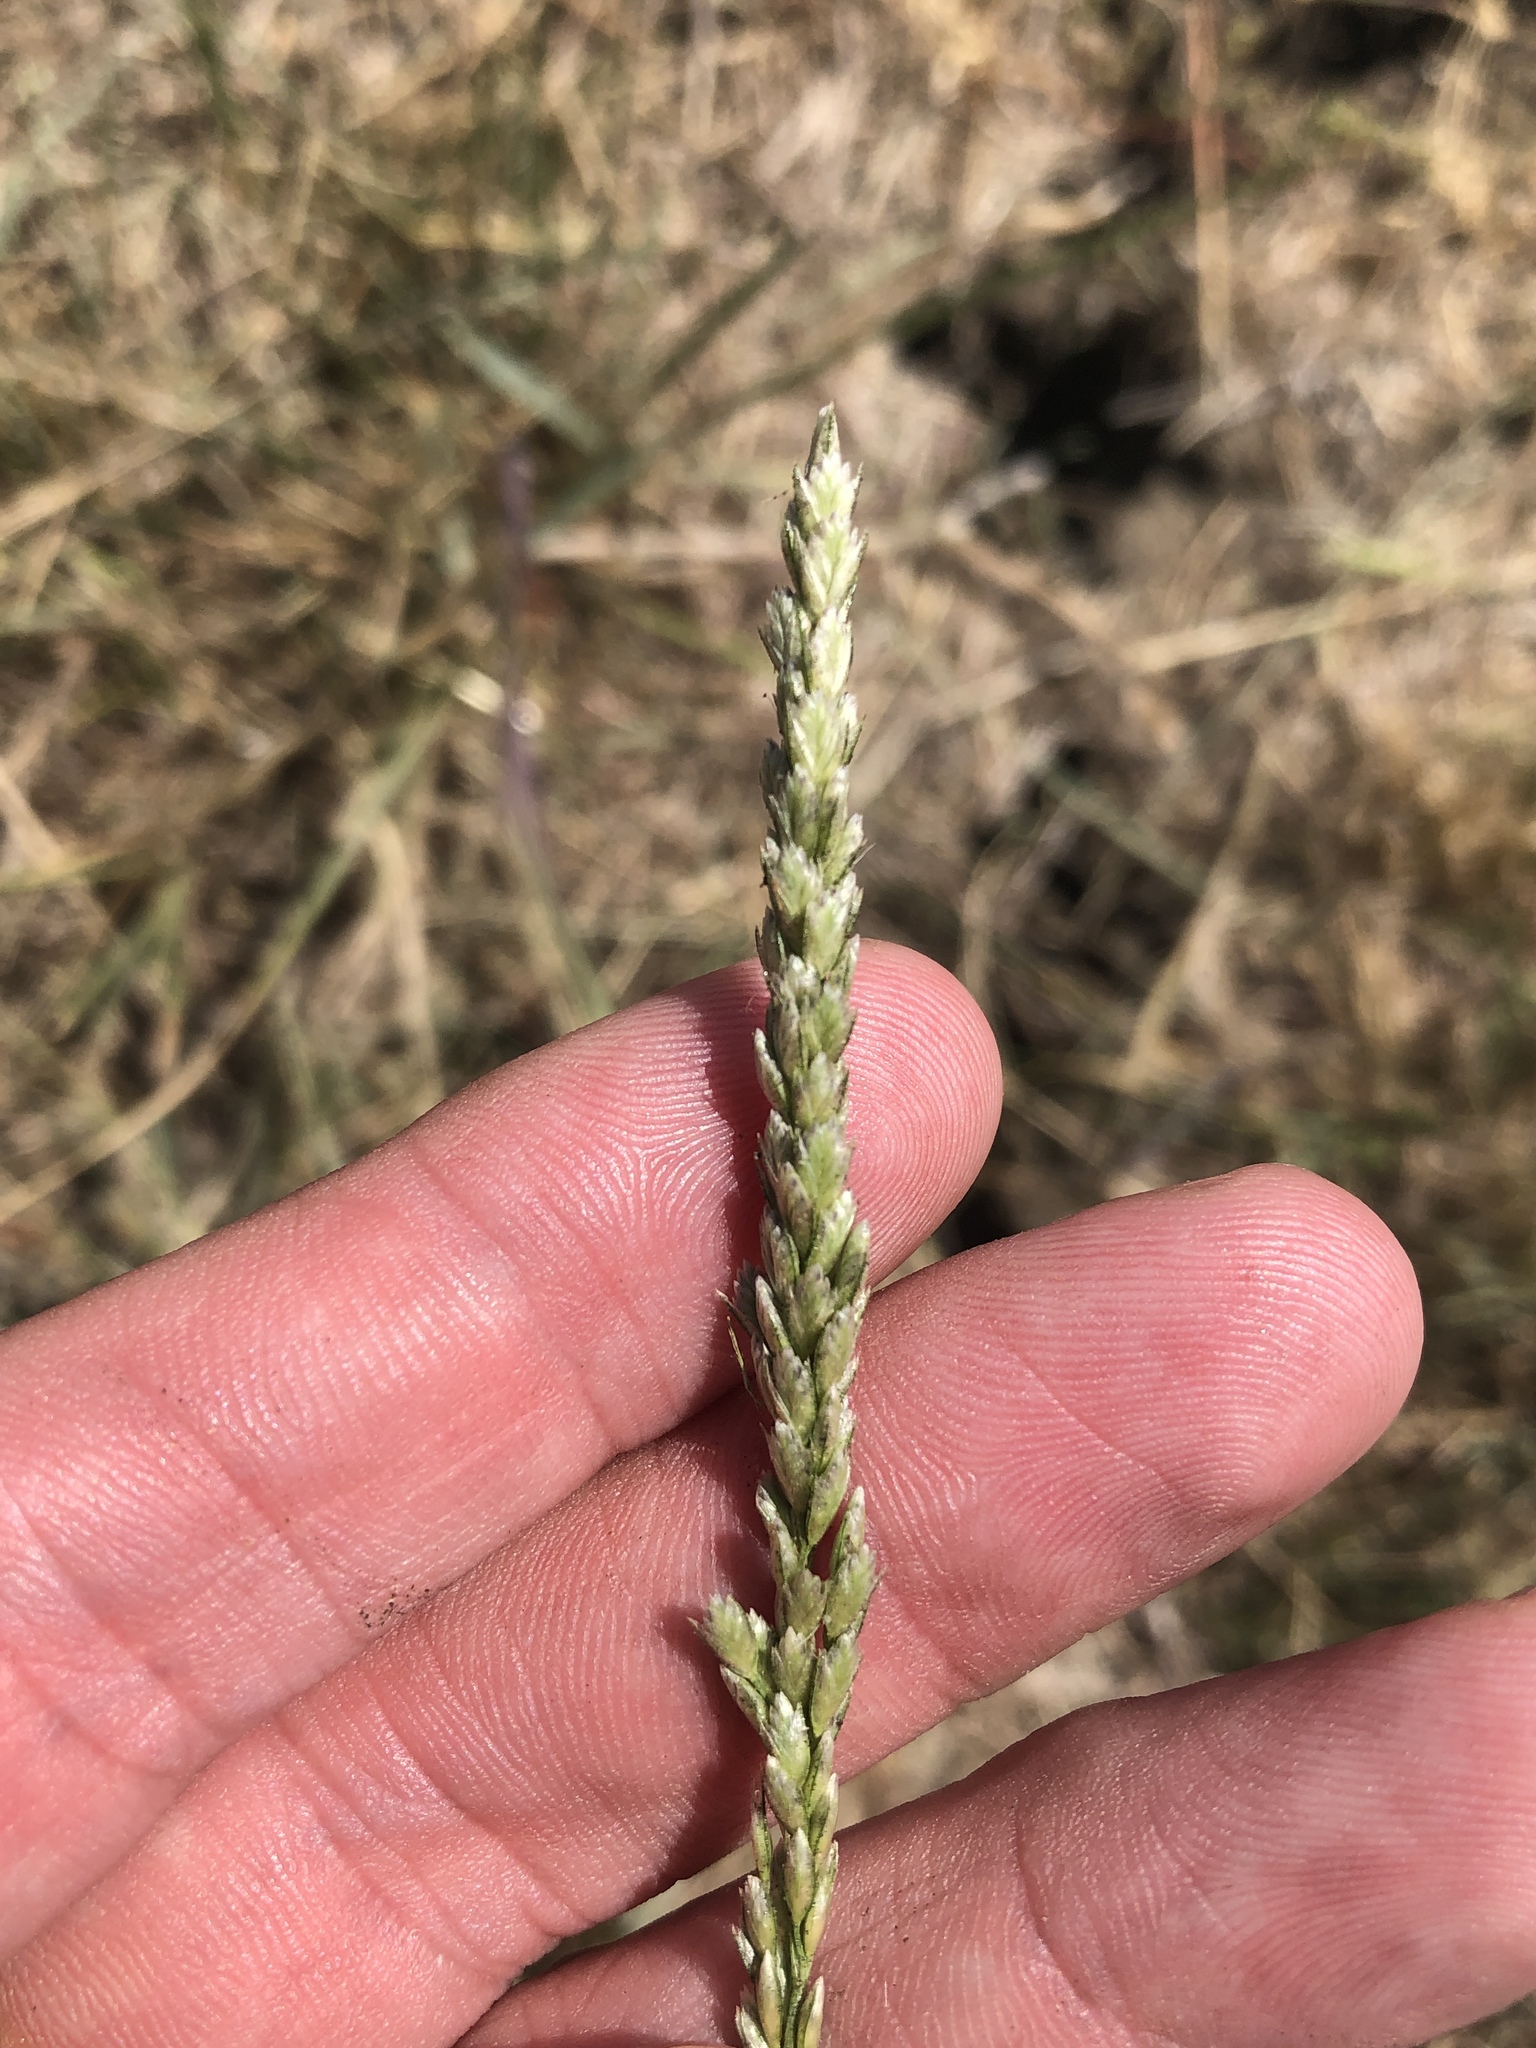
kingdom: Plantae
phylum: Tracheophyta
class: Liliopsida
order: Poales
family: Poaceae
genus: Tridens
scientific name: Tridens albescens
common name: White tridens
